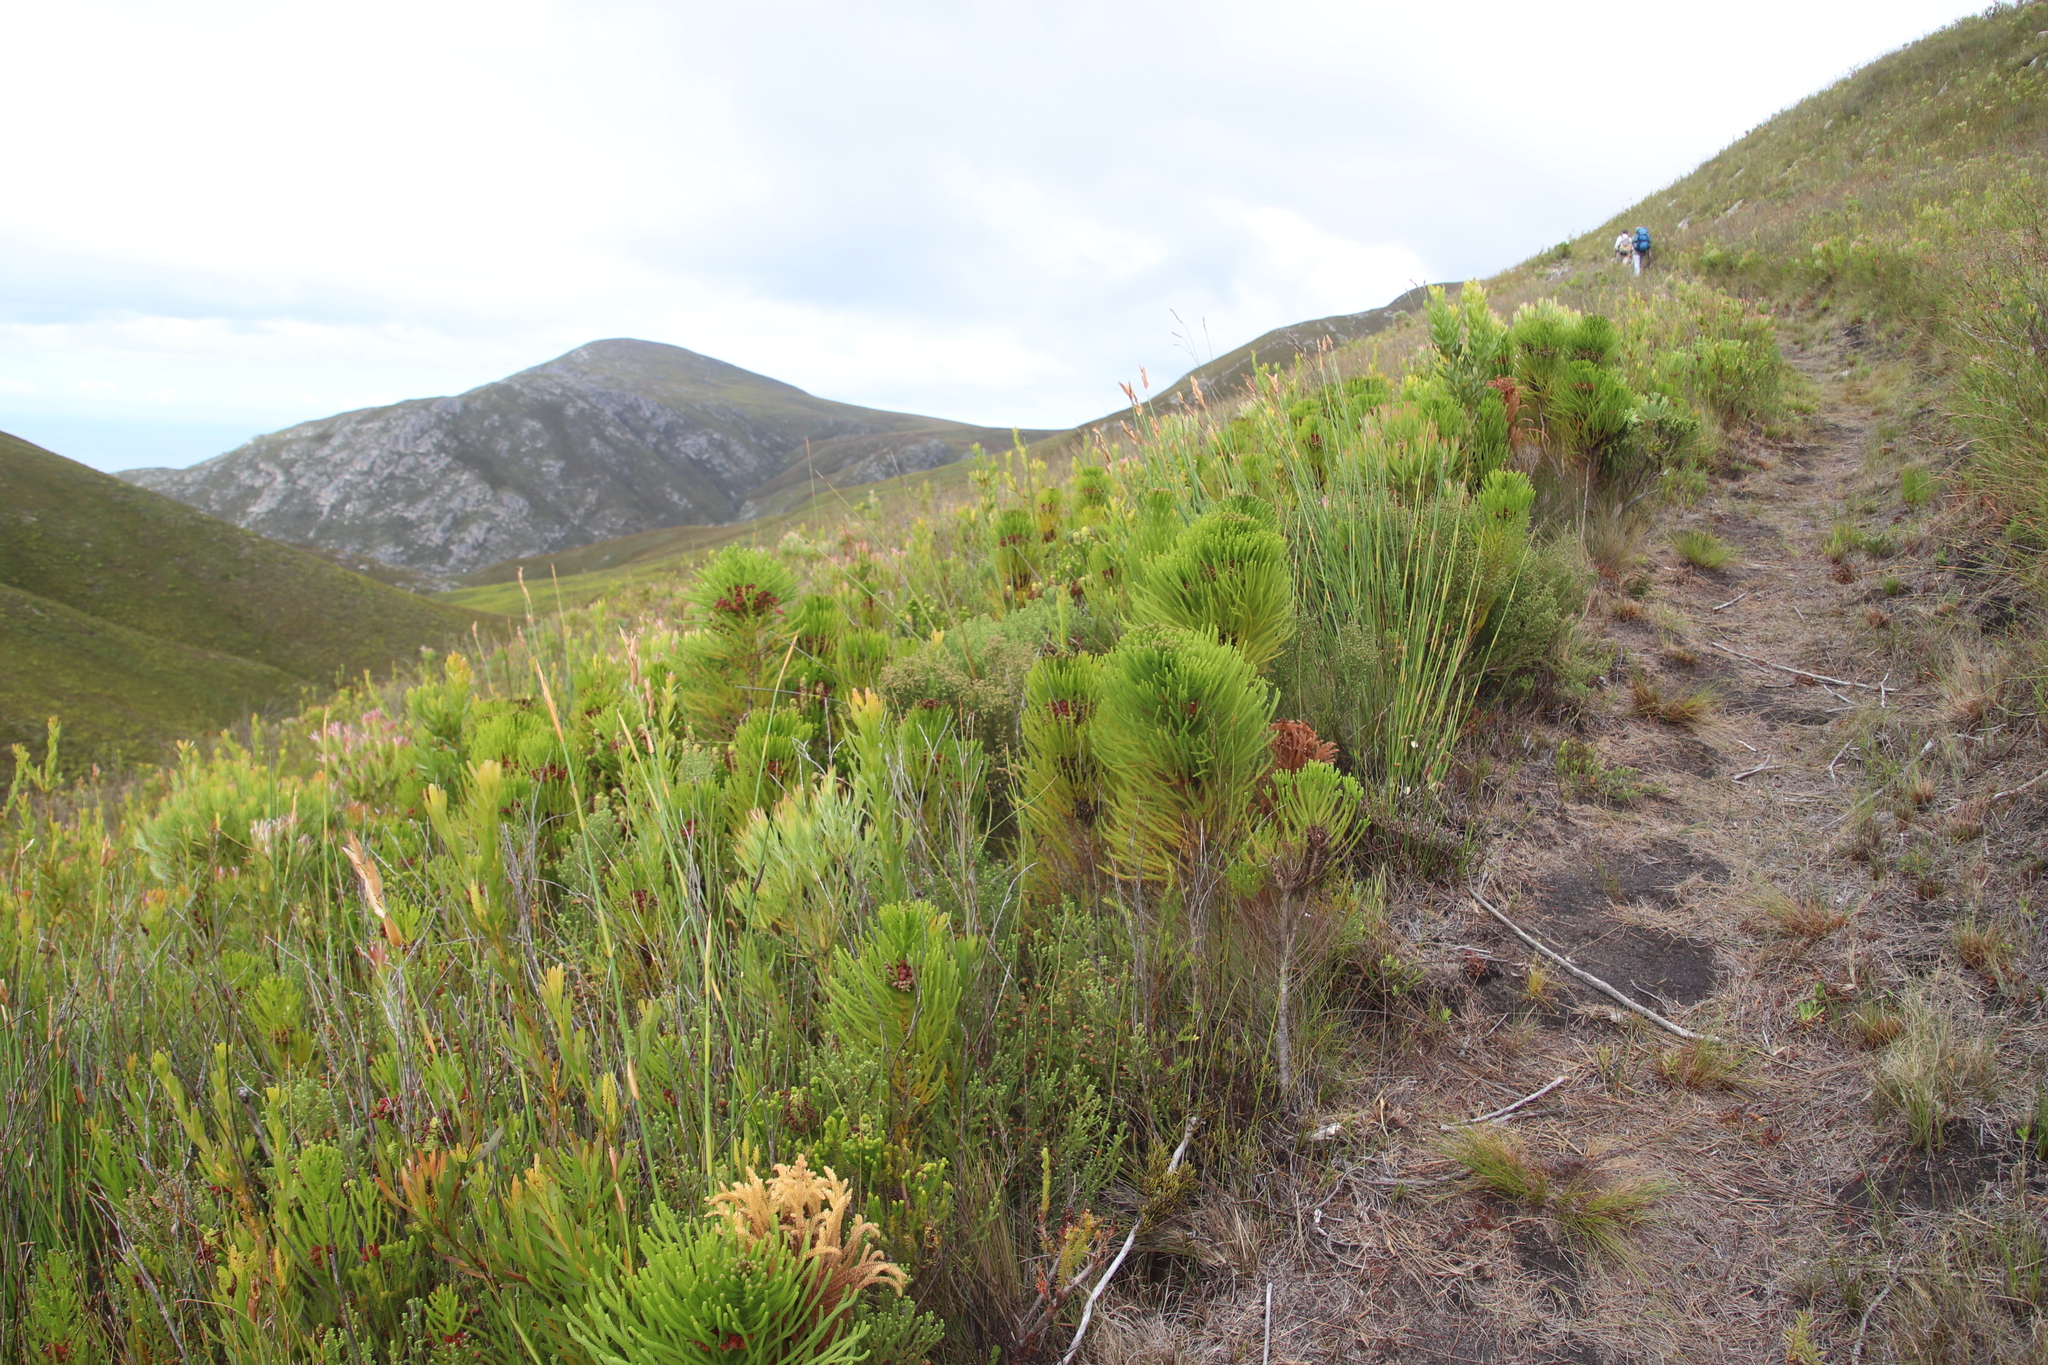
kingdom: Plantae
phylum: Tracheophyta
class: Magnoliopsida
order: Bruniales
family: Bruniaceae
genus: Berzelia
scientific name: Berzelia alopecurioides
